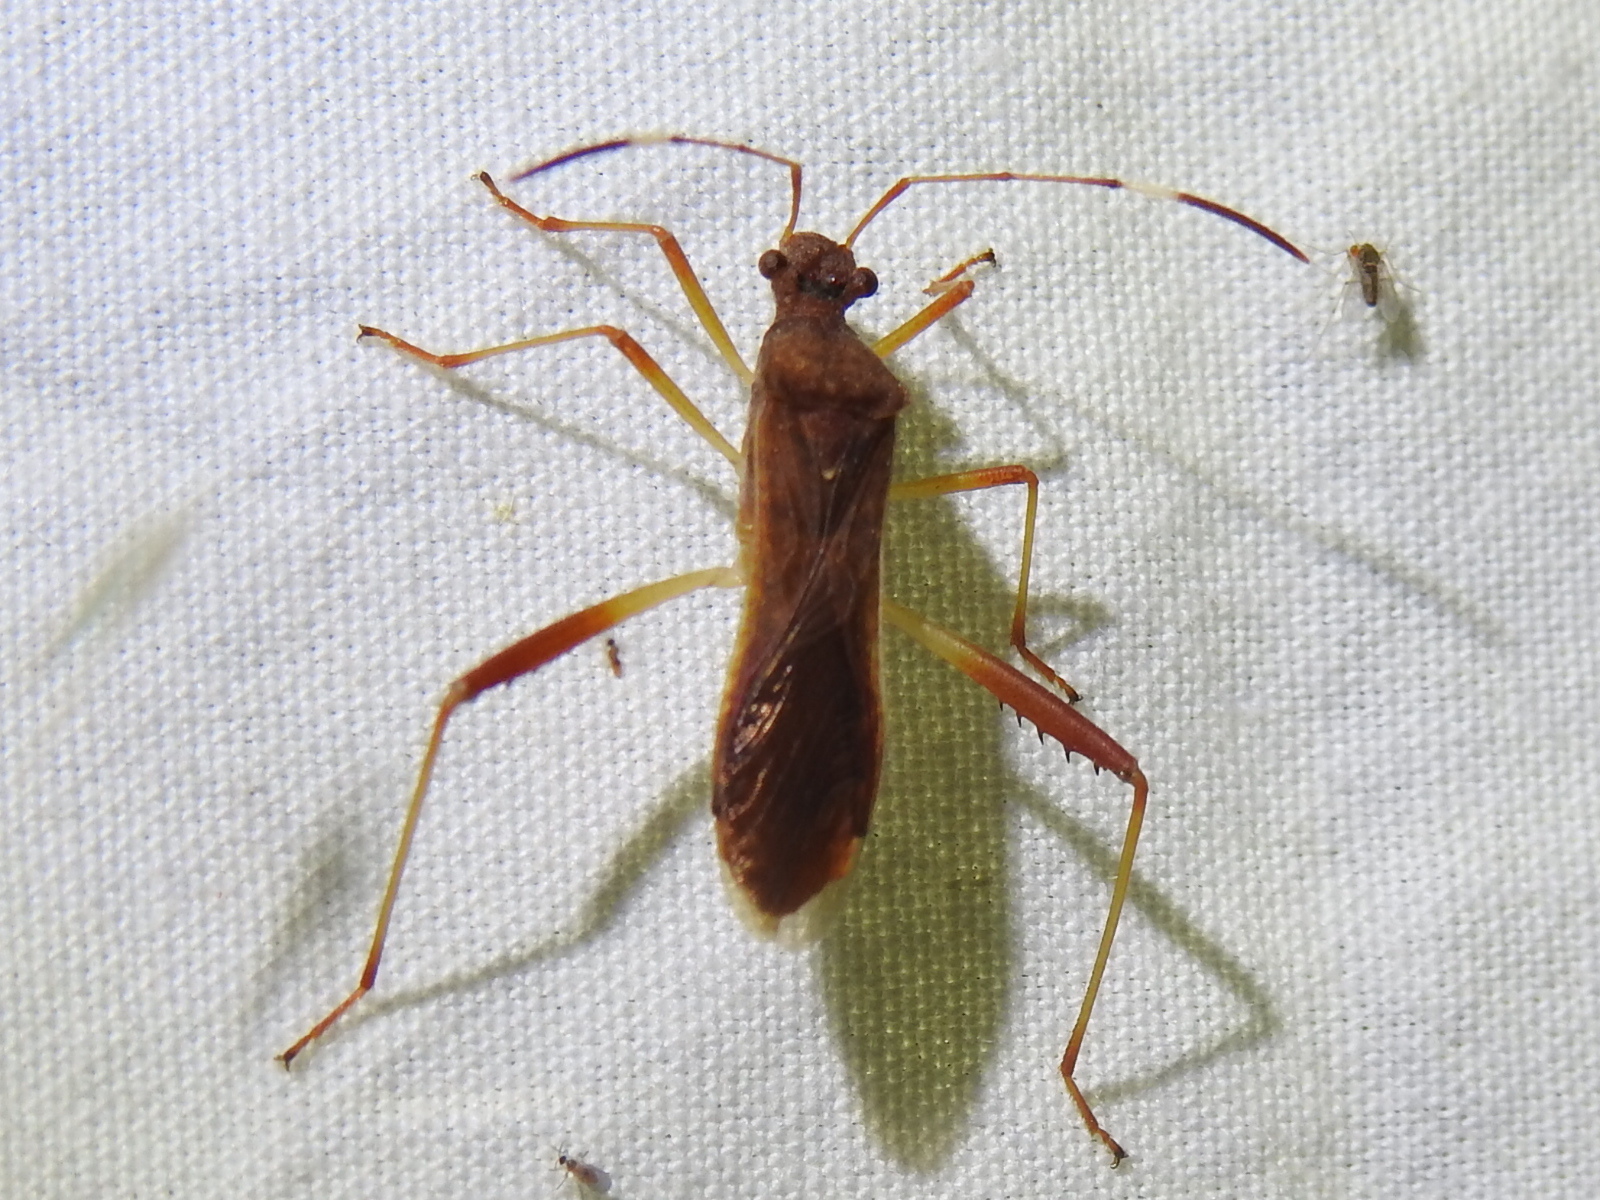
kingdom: Animalia
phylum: Arthropoda
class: Insecta
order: Hemiptera
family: Alydidae
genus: Megalotomus
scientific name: Megalotomus quinquespinosus
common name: Lupine bug
